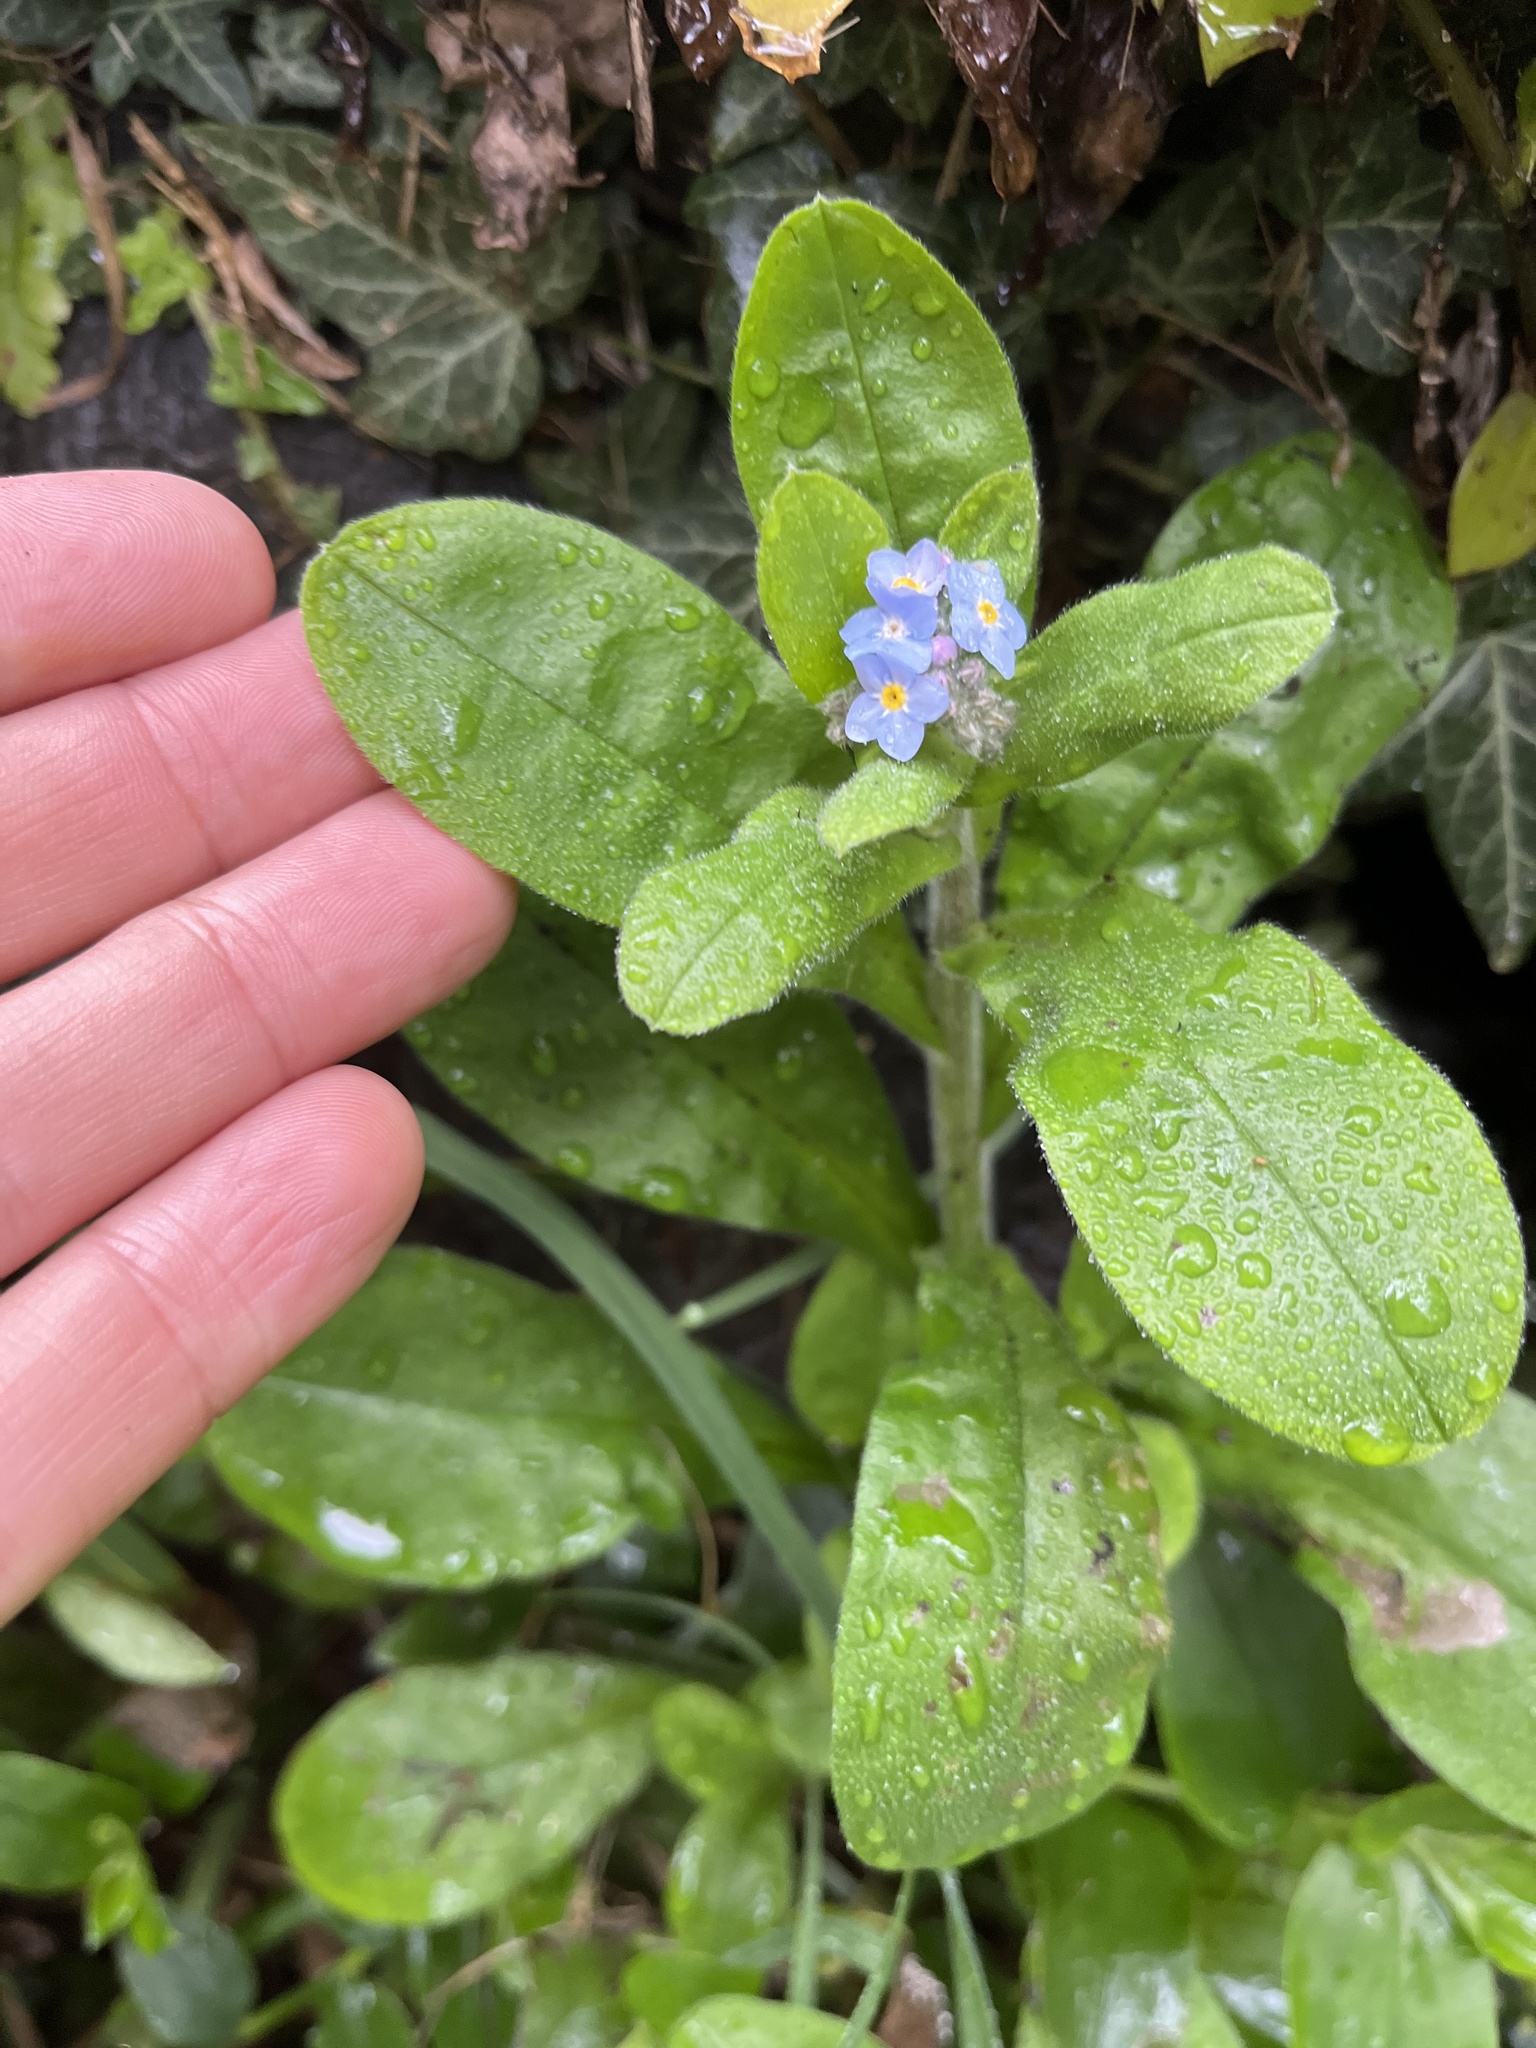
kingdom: Plantae
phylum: Tracheophyta
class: Magnoliopsida
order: Boraginales
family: Boraginaceae
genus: Myosotis
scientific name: Myosotis sylvatica
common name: Wood forget-me-not
